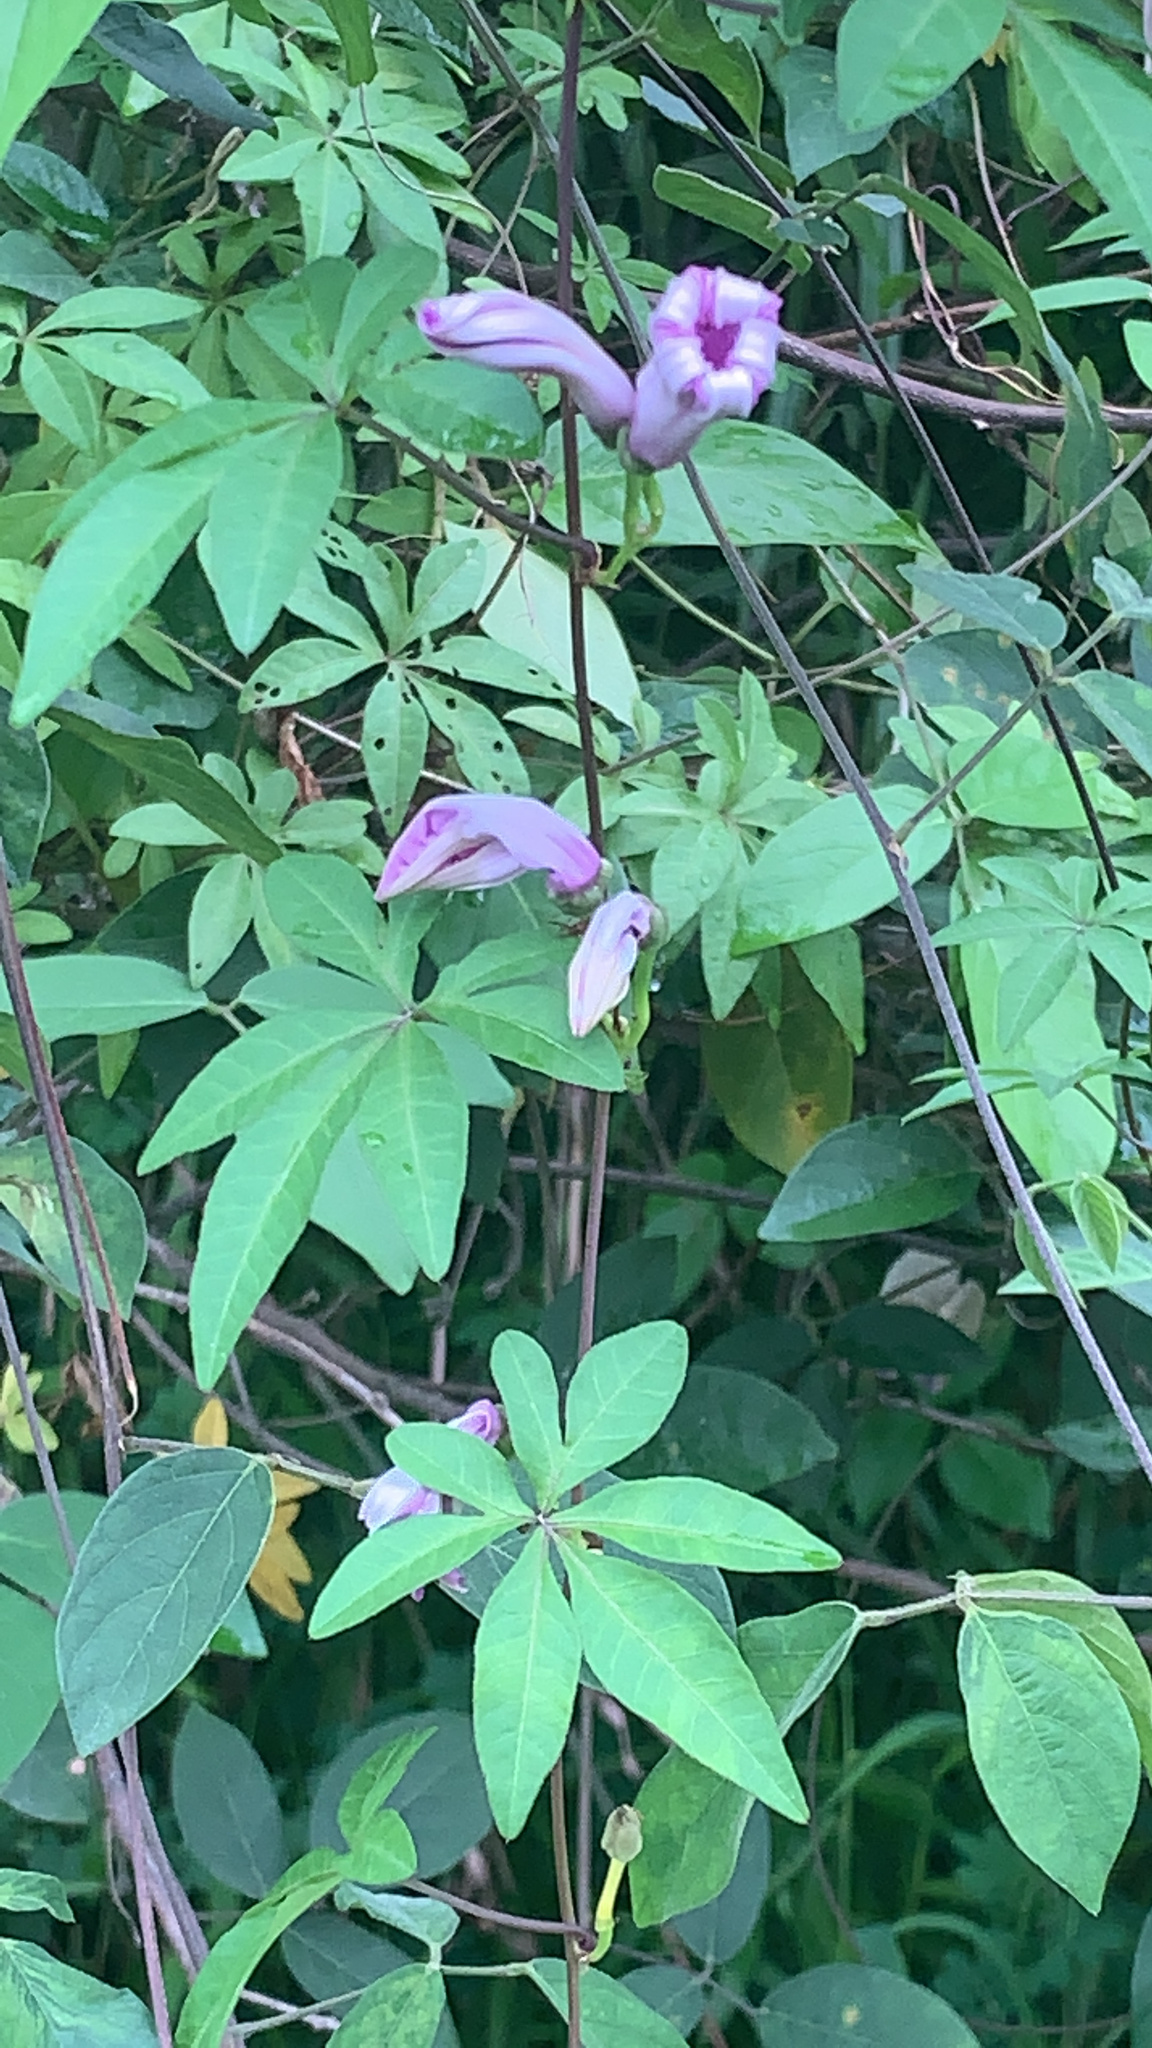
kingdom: Plantae
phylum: Tracheophyta
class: Magnoliopsida
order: Solanales
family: Convolvulaceae
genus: Ipomoea
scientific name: Ipomoea cairica
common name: Mile a minute vine
